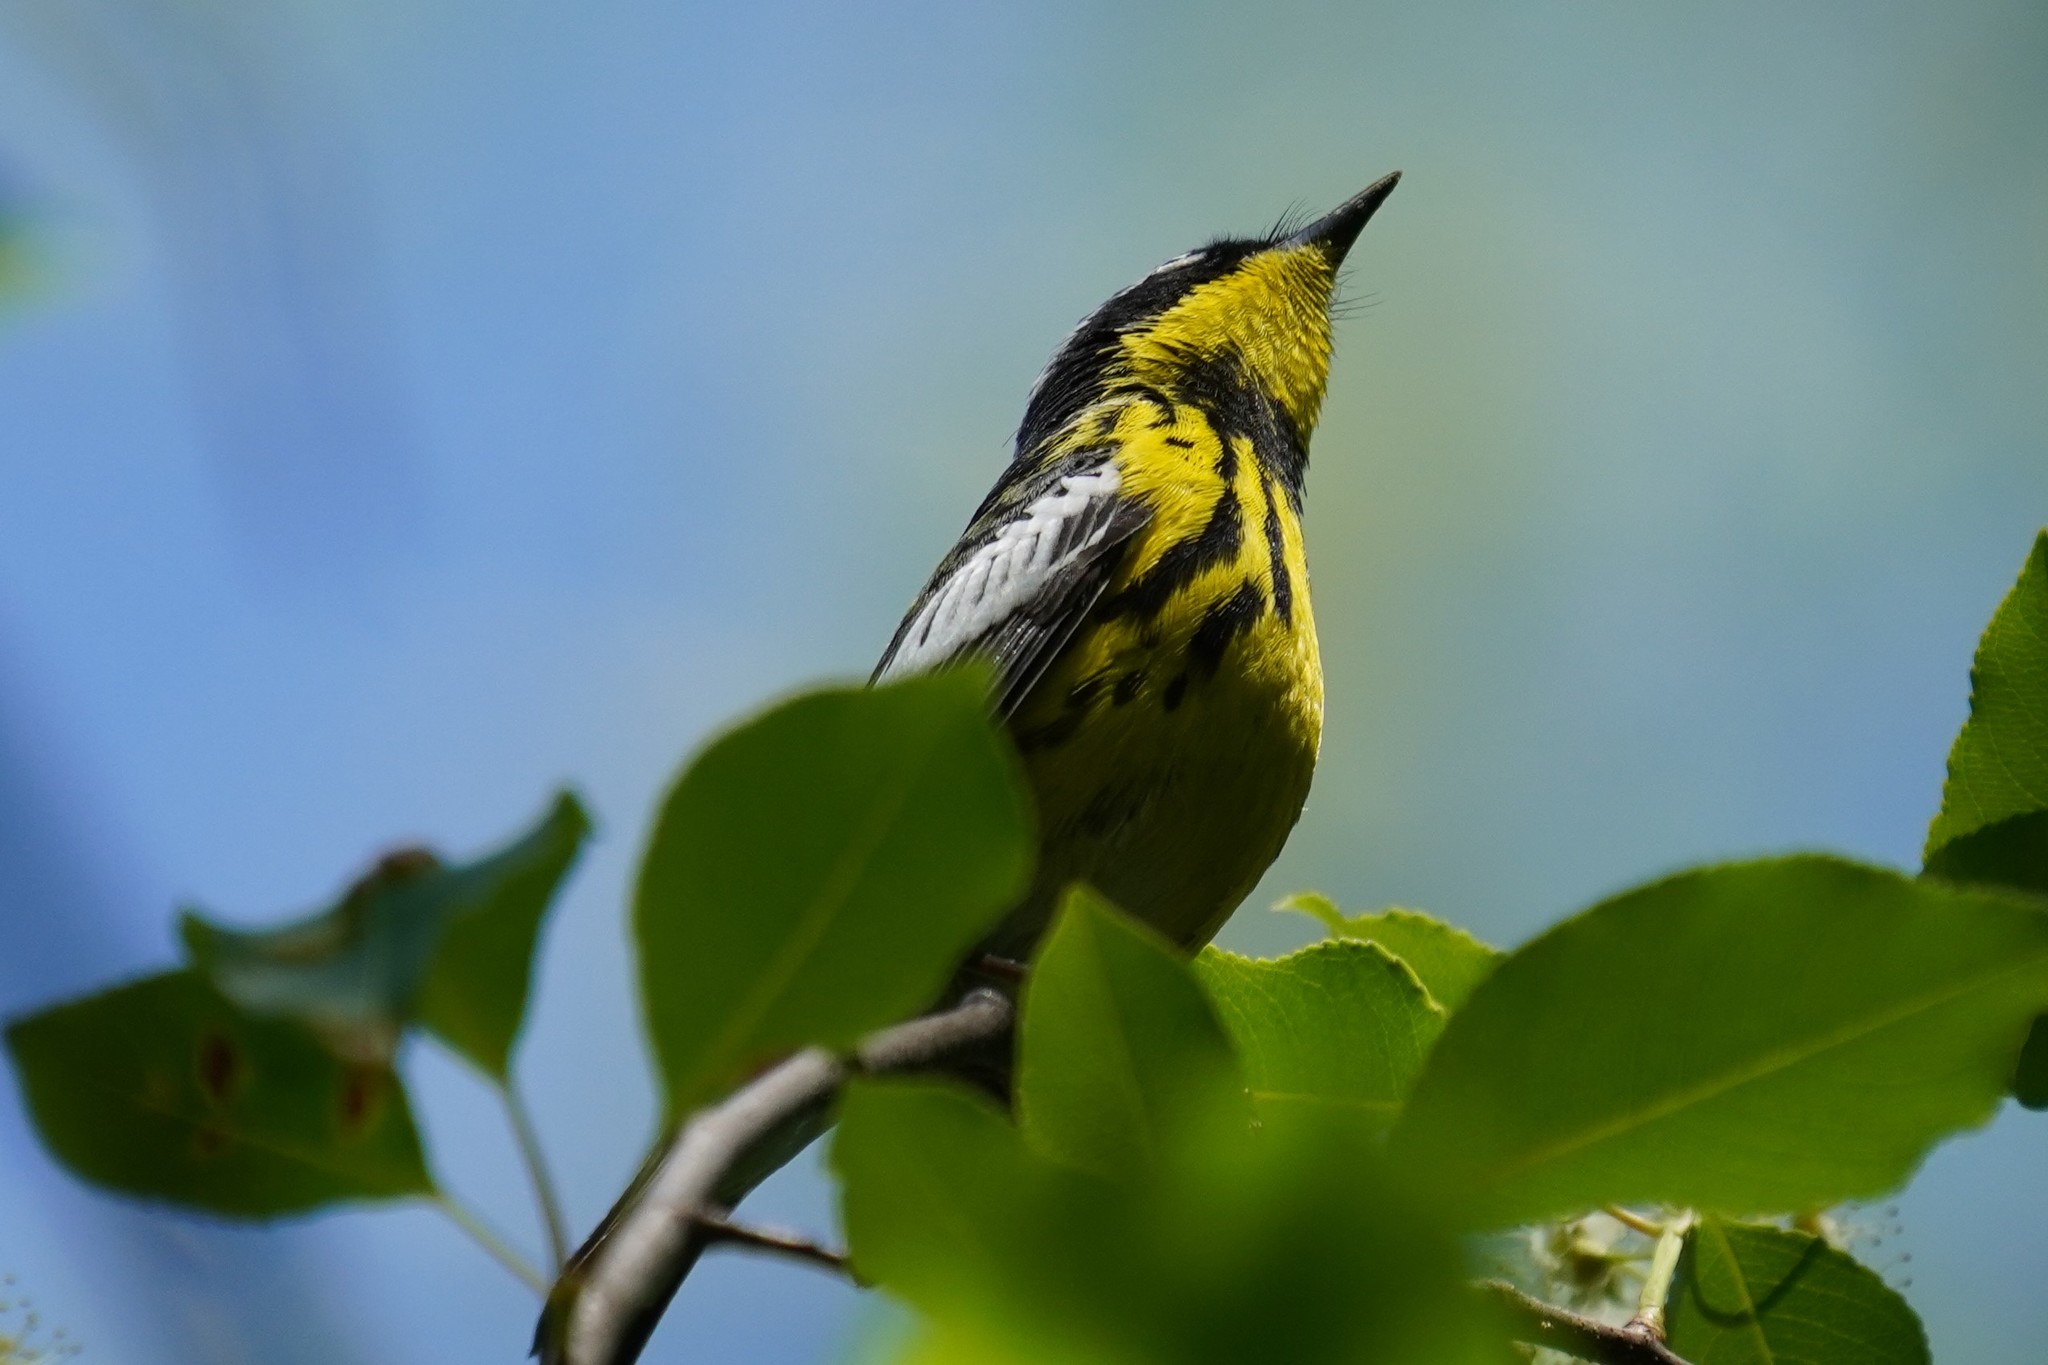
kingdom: Animalia
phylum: Chordata
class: Aves
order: Passeriformes
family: Parulidae
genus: Setophaga
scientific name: Setophaga magnolia
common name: Magnolia warbler
